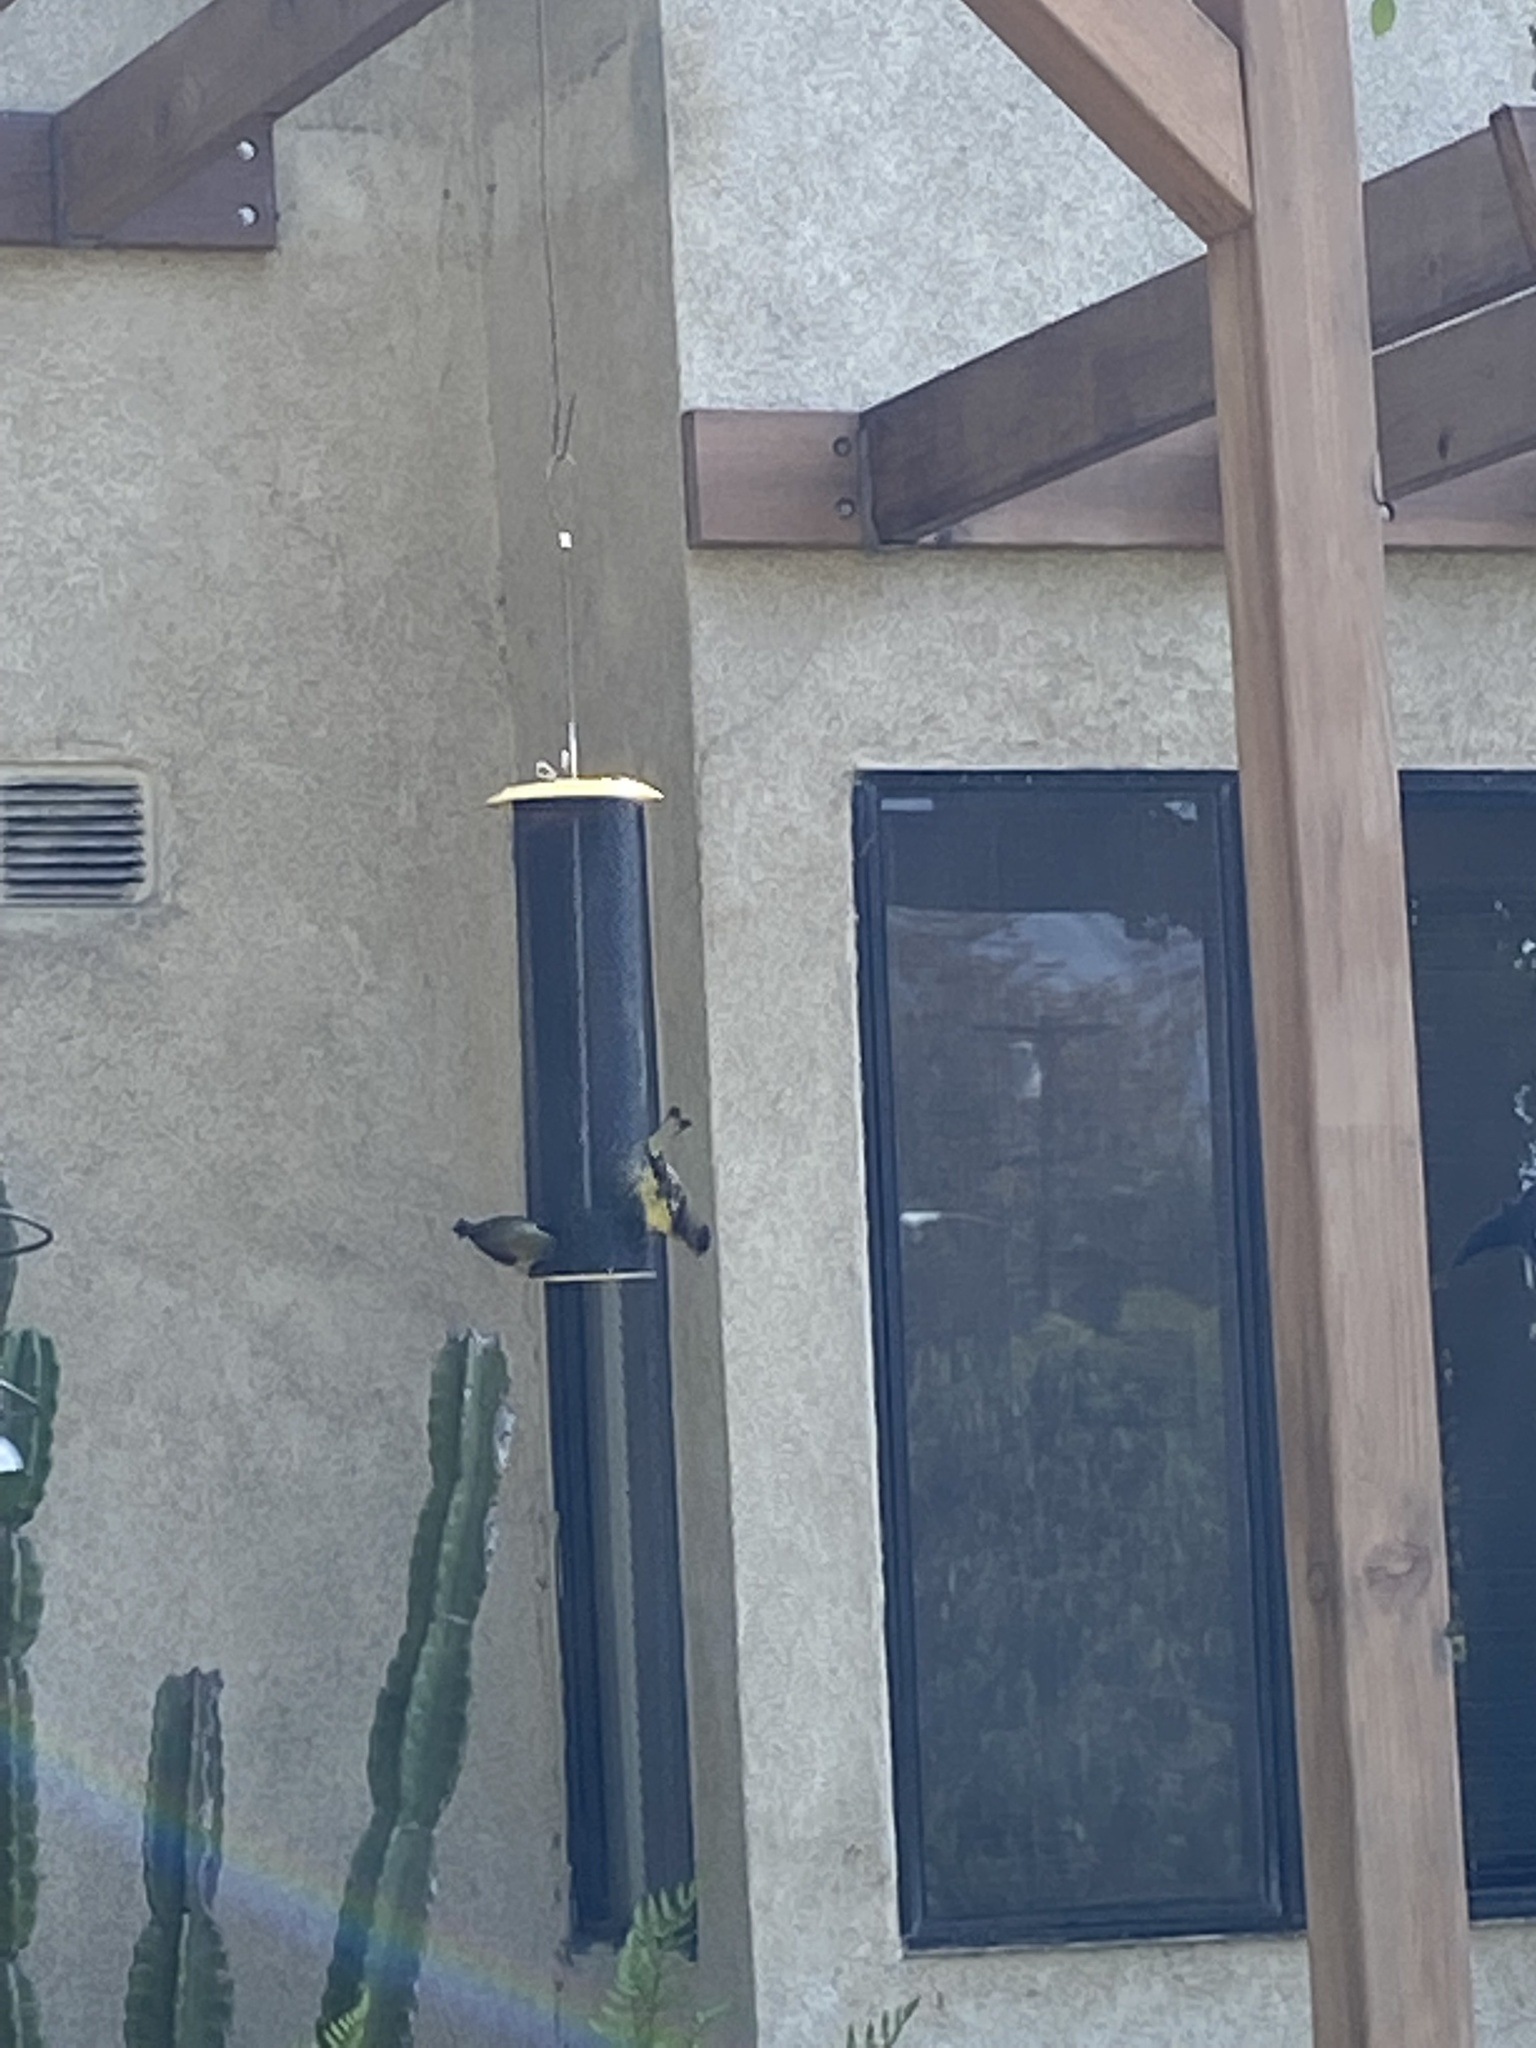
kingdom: Animalia
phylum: Chordata
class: Aves
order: Passeriformes
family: Fringillidae
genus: Spinus
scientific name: Spinus psaltria
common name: Lesser goldfinch
